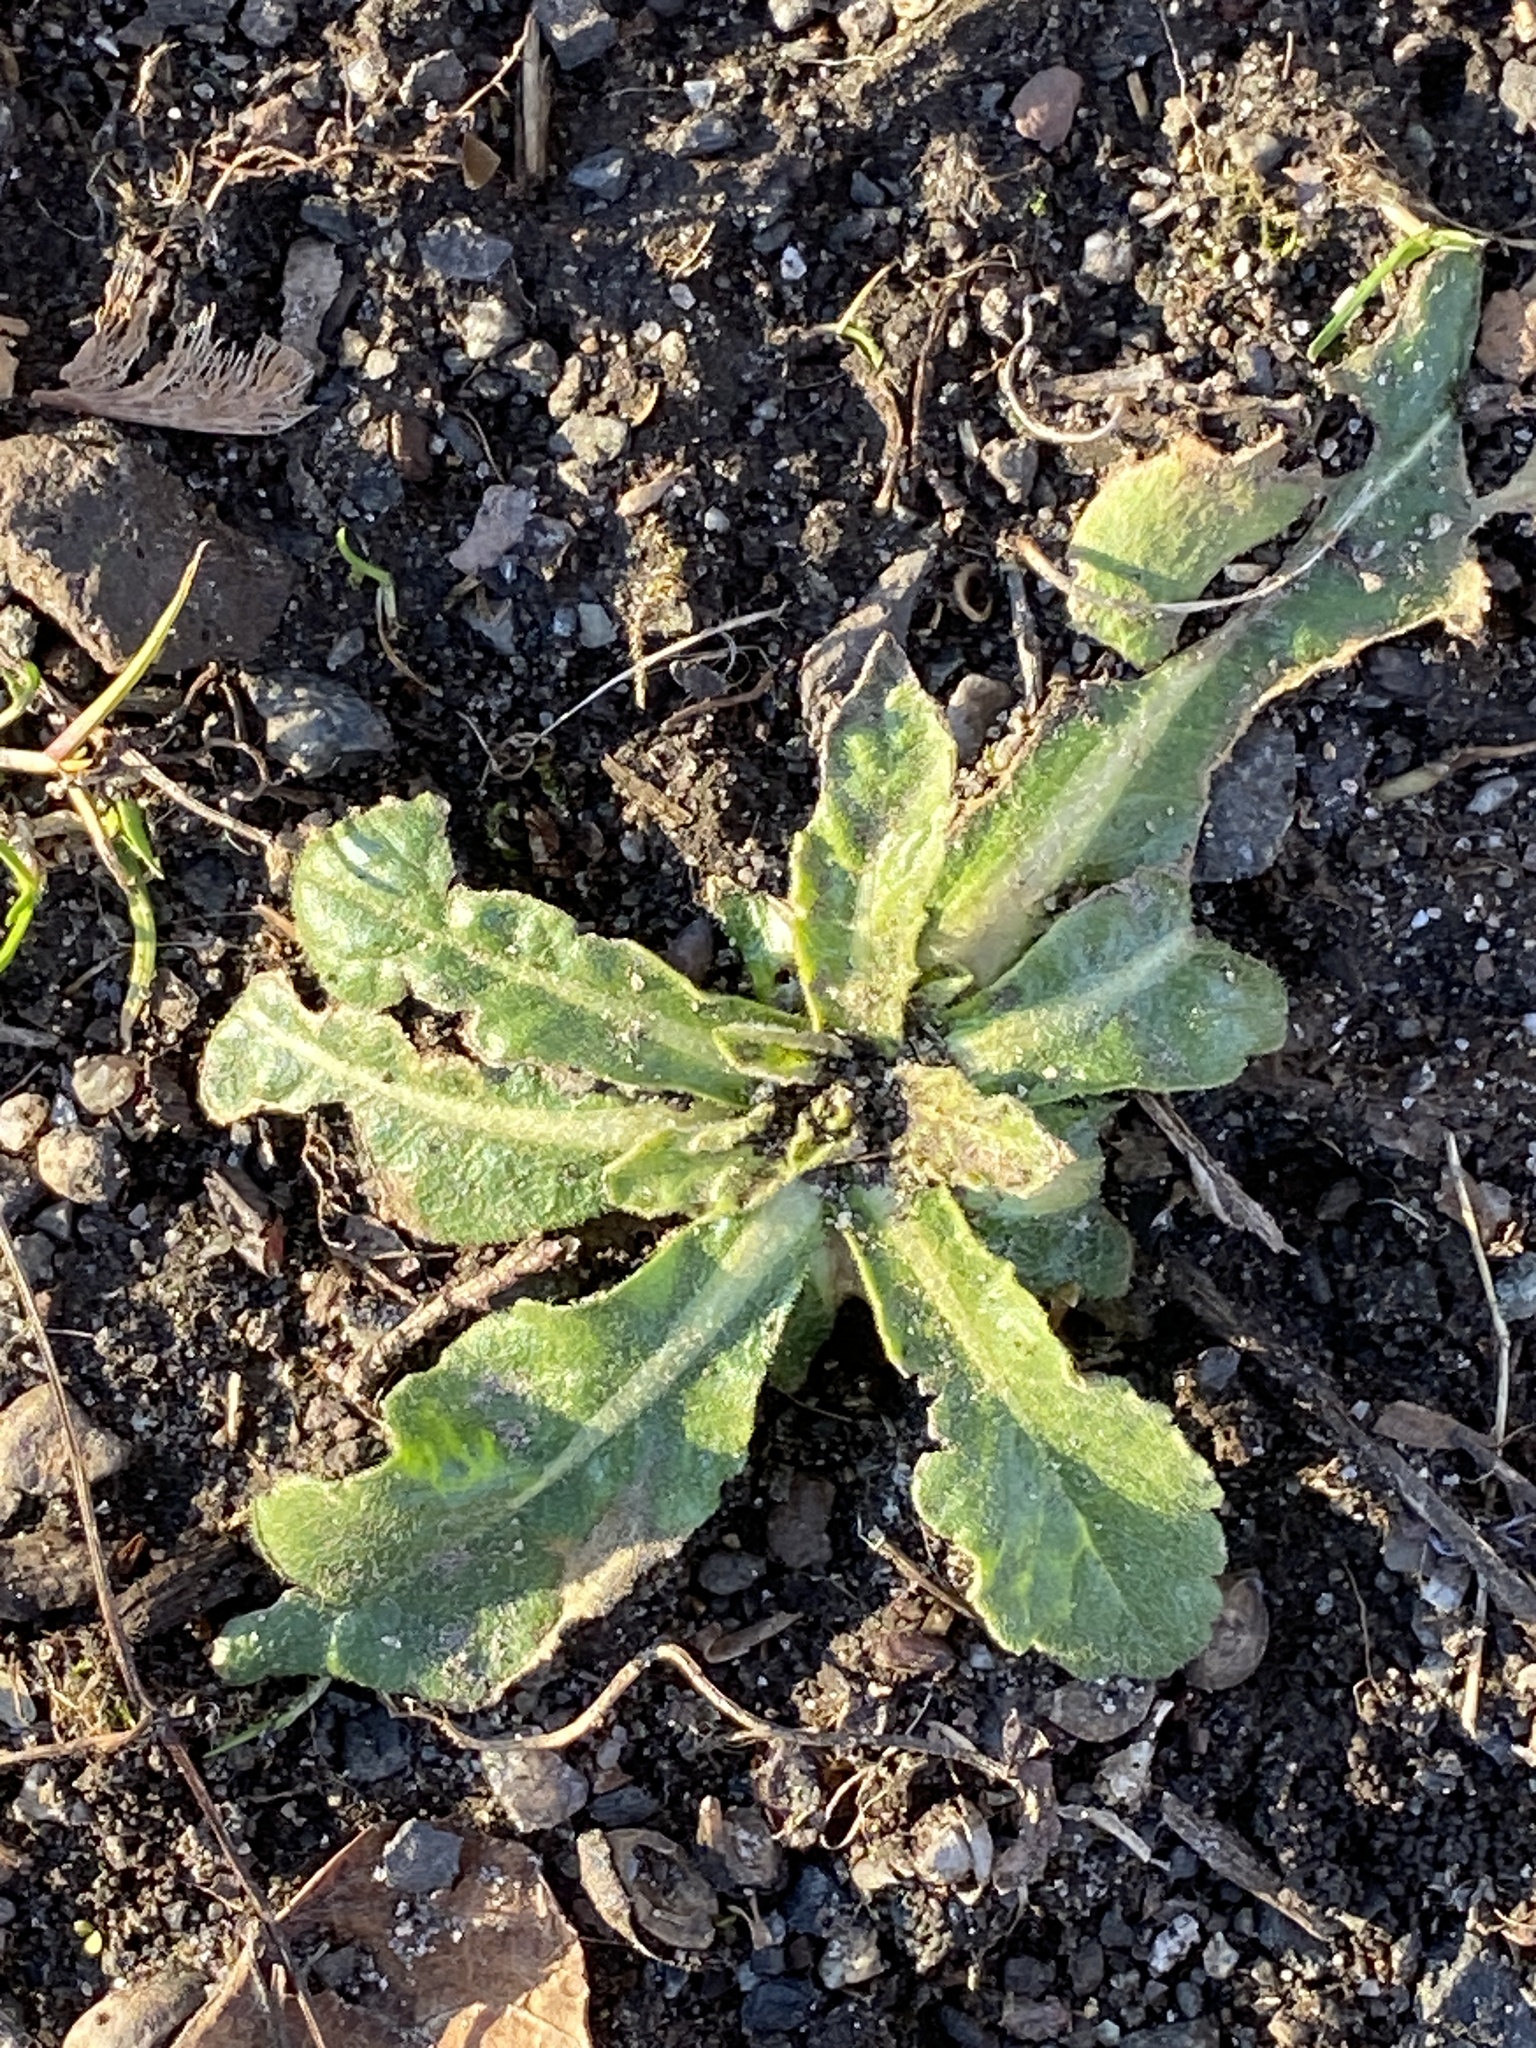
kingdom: Plantae
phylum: Tracheophyta
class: Magnoliopsida
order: Asterales
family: Asteraceae
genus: Hypochaeris
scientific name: Hypochaeris radicata
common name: Flatweed
